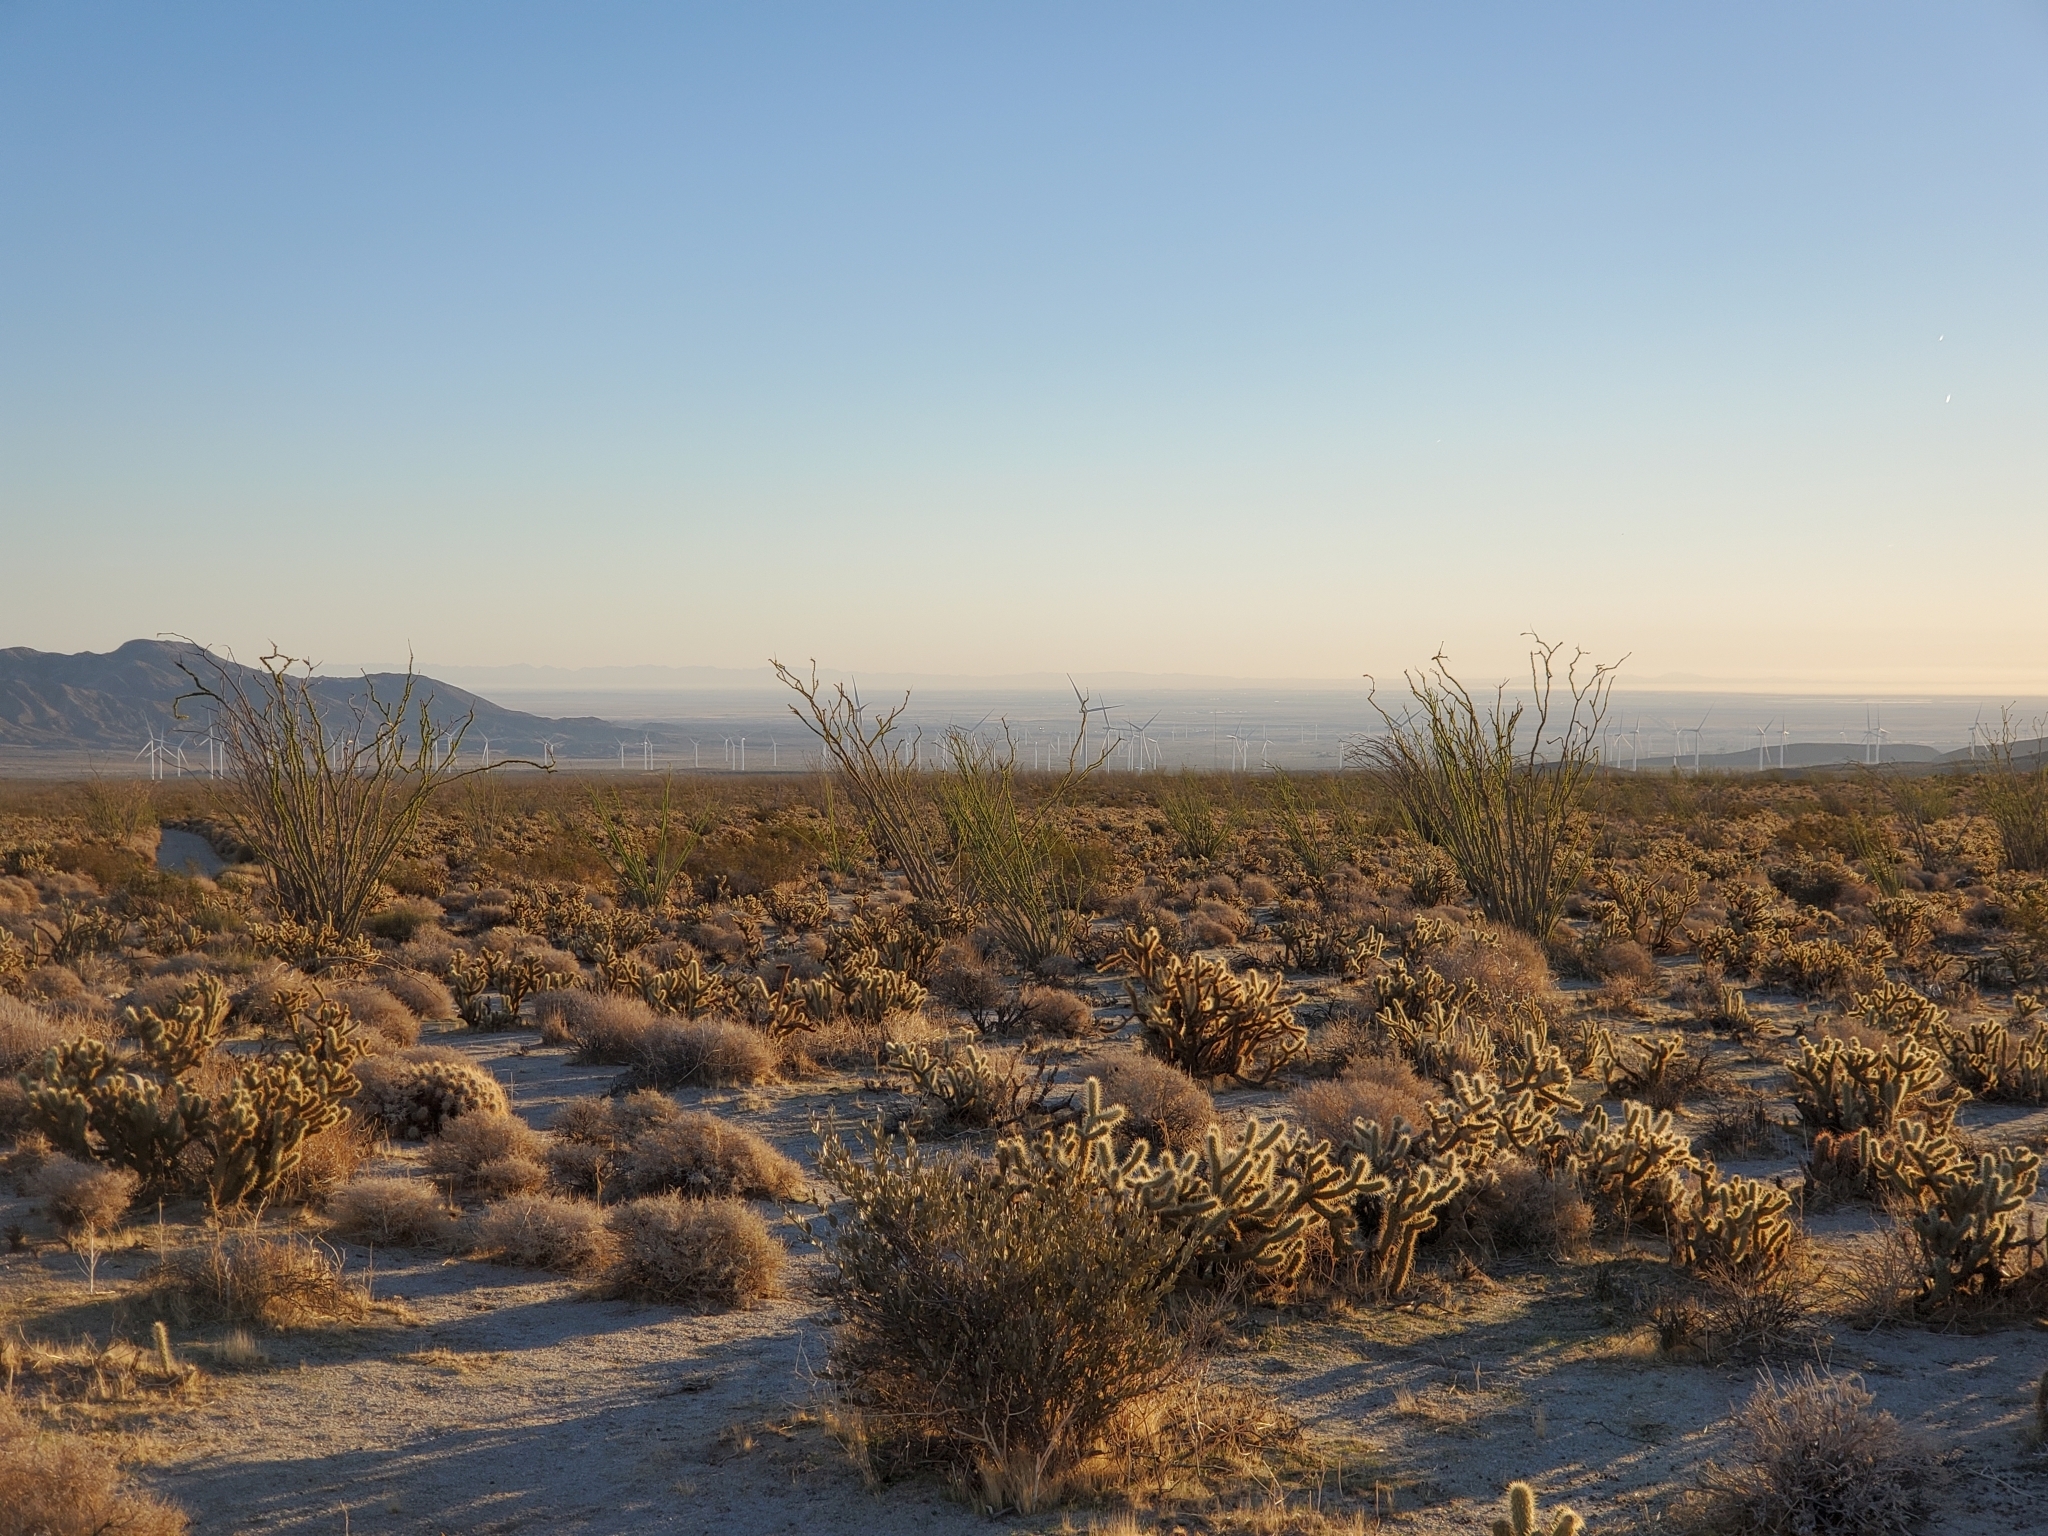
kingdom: Plantae
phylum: Tracheophyta
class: Magnoliopsida
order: Ericales
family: Fouquieriaceae
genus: Fouquieria
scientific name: Fouquieria splendens
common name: Vine-cactus
